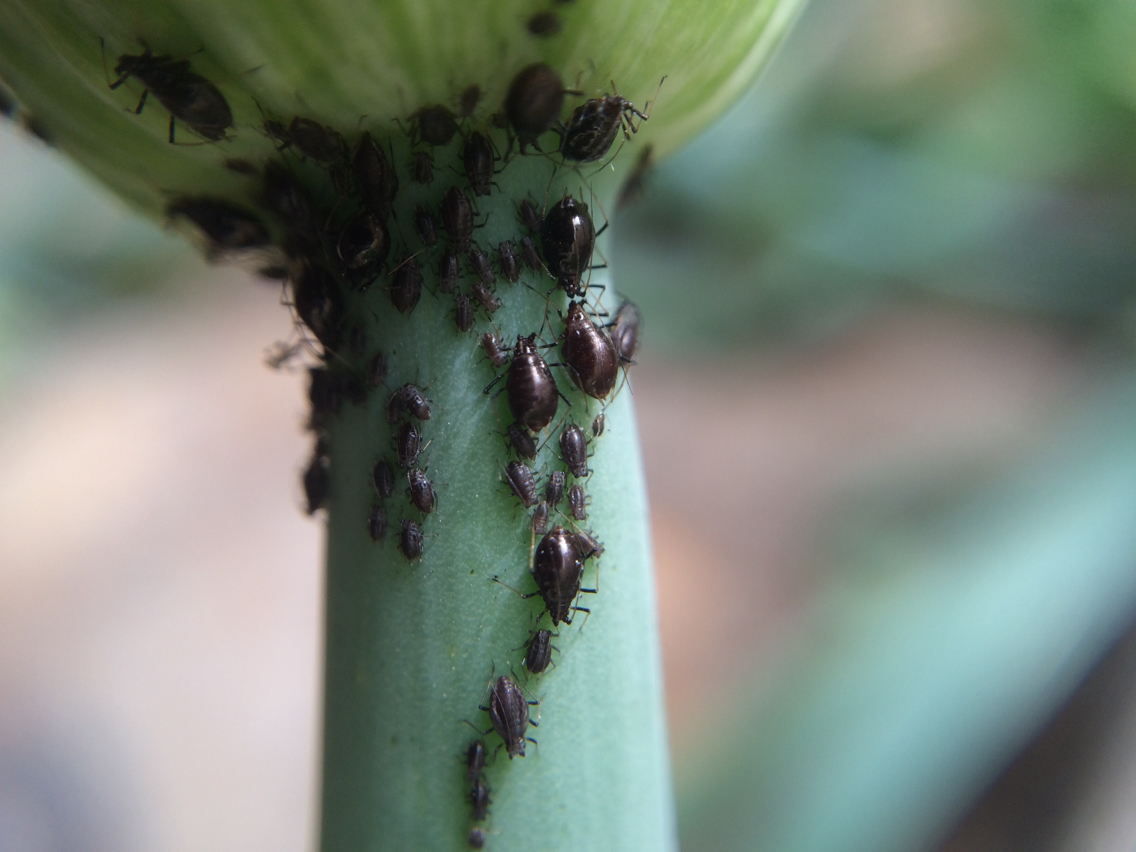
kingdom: Animalia
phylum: Arthropoda
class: Insecta
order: Hemiptera
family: Aphididae
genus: Neotoxoptera
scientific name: Neotoxoptera formosana
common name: Onion aphid
